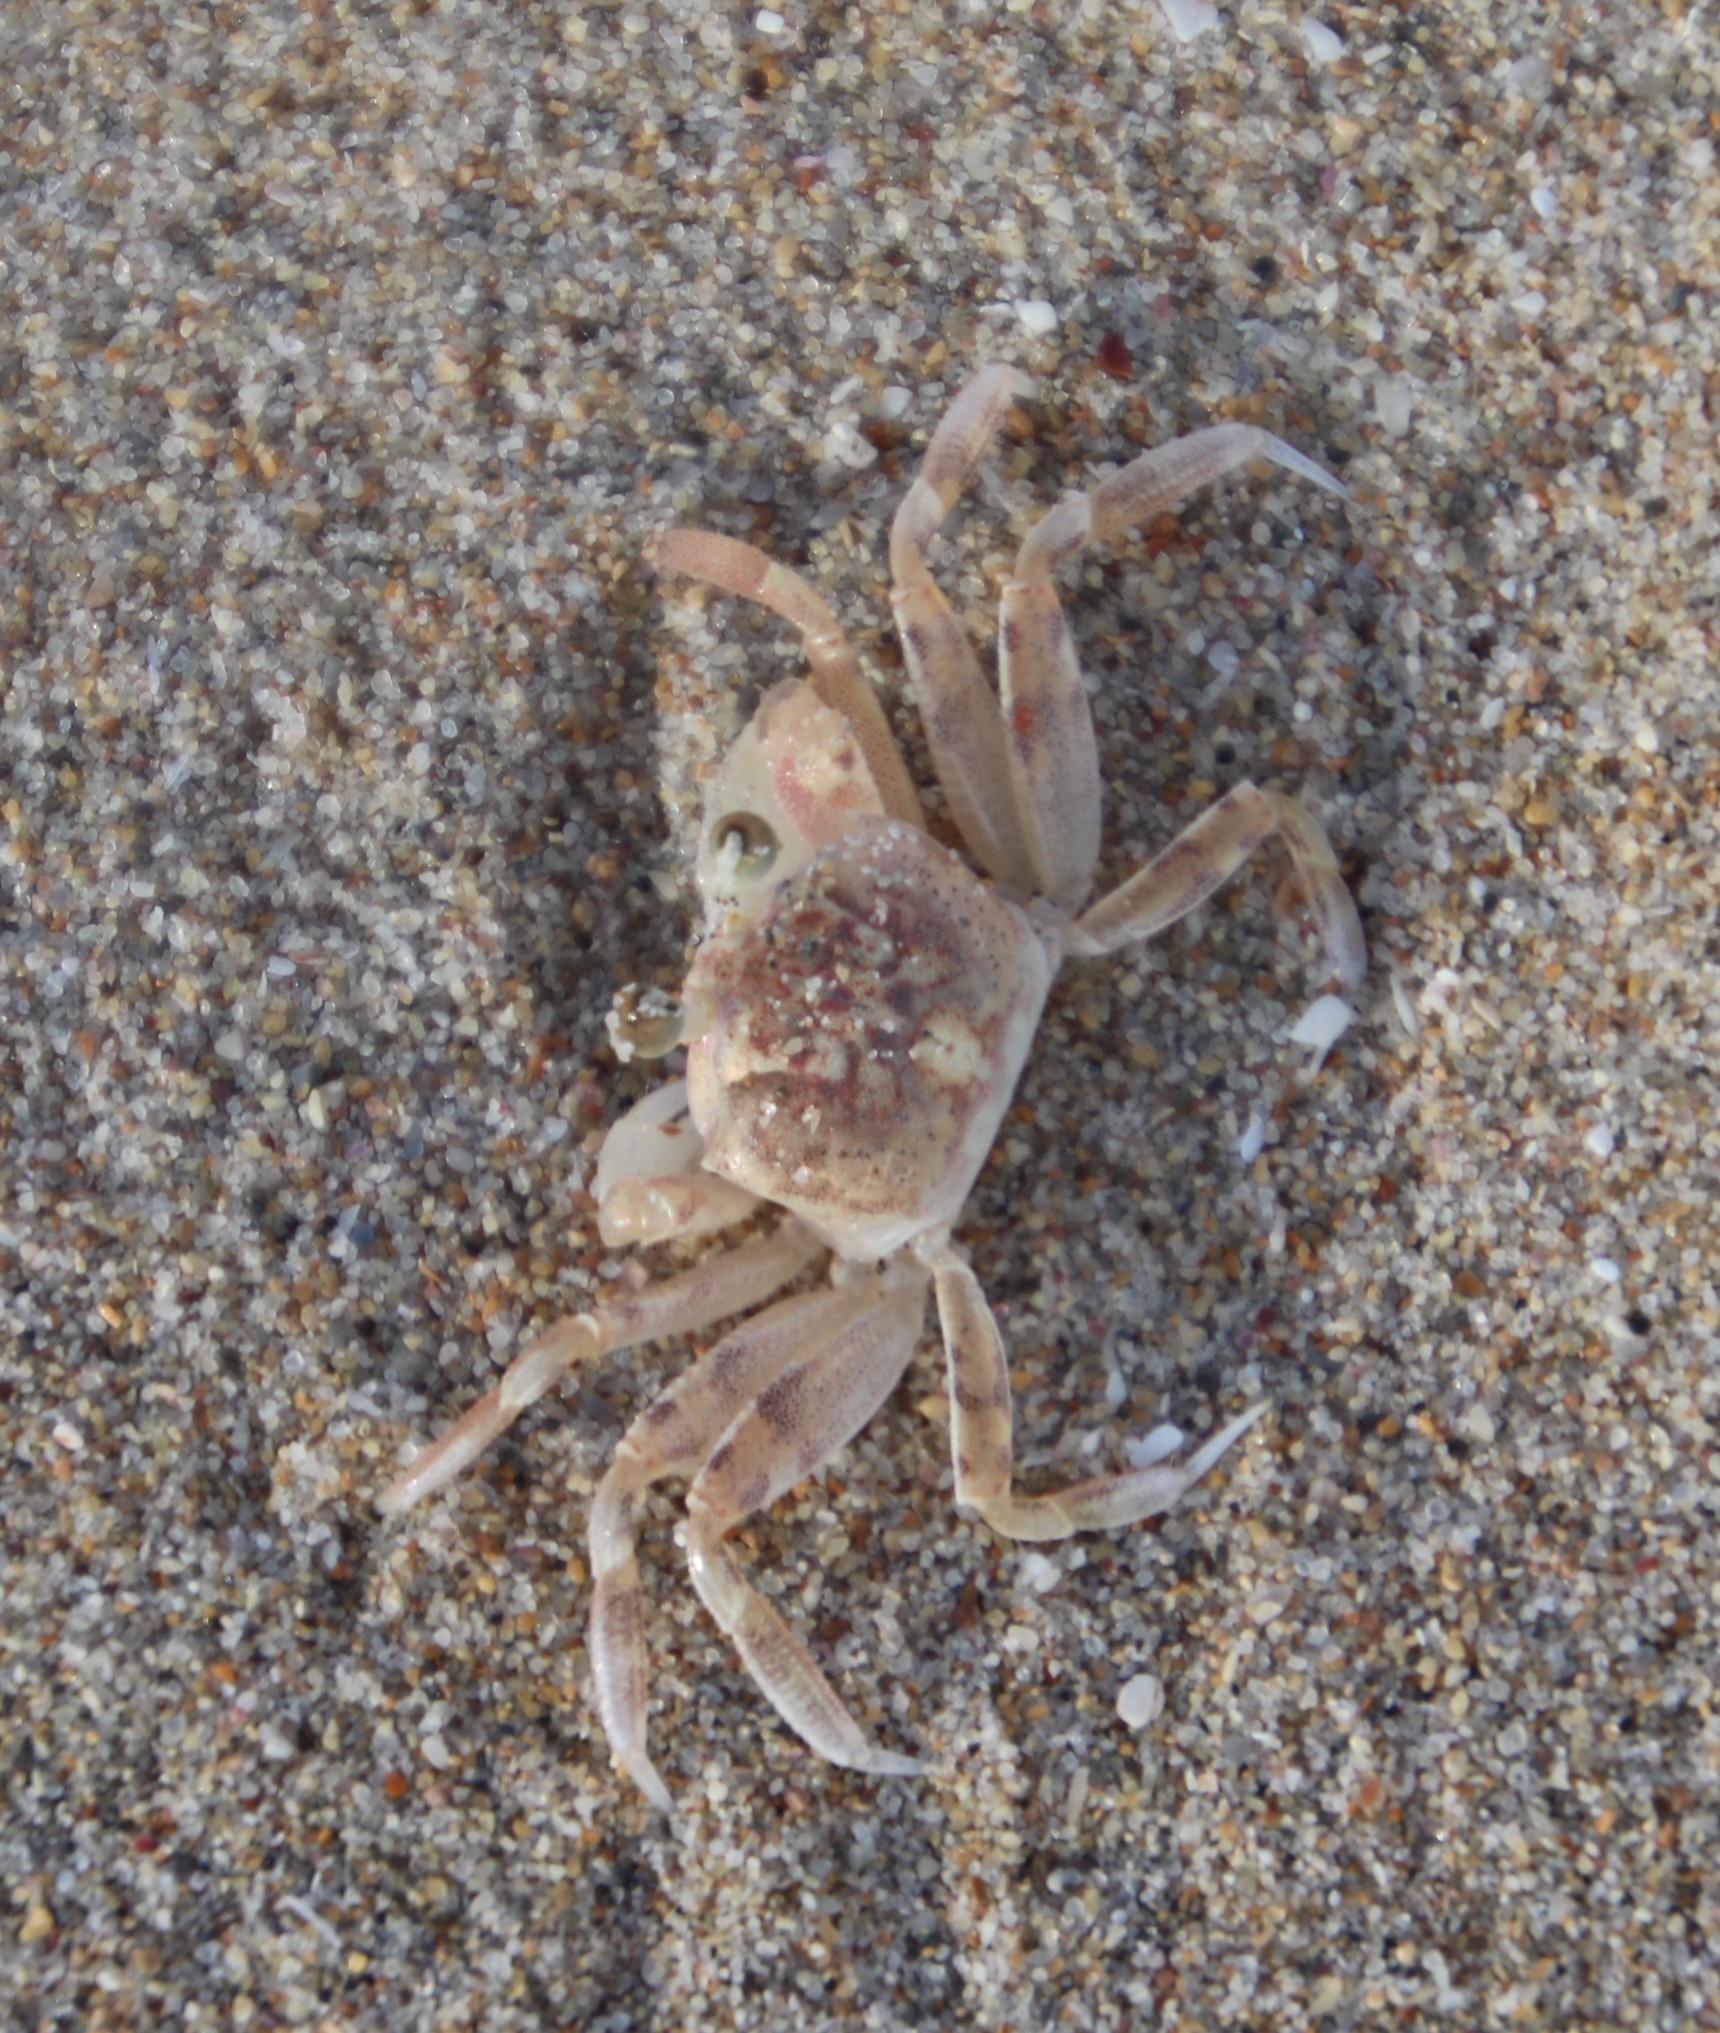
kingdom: Animalia
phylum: Arthropoda
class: Malacostraca
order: Decapoda
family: Ocypodidae
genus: Ocypode
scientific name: Ocypode
